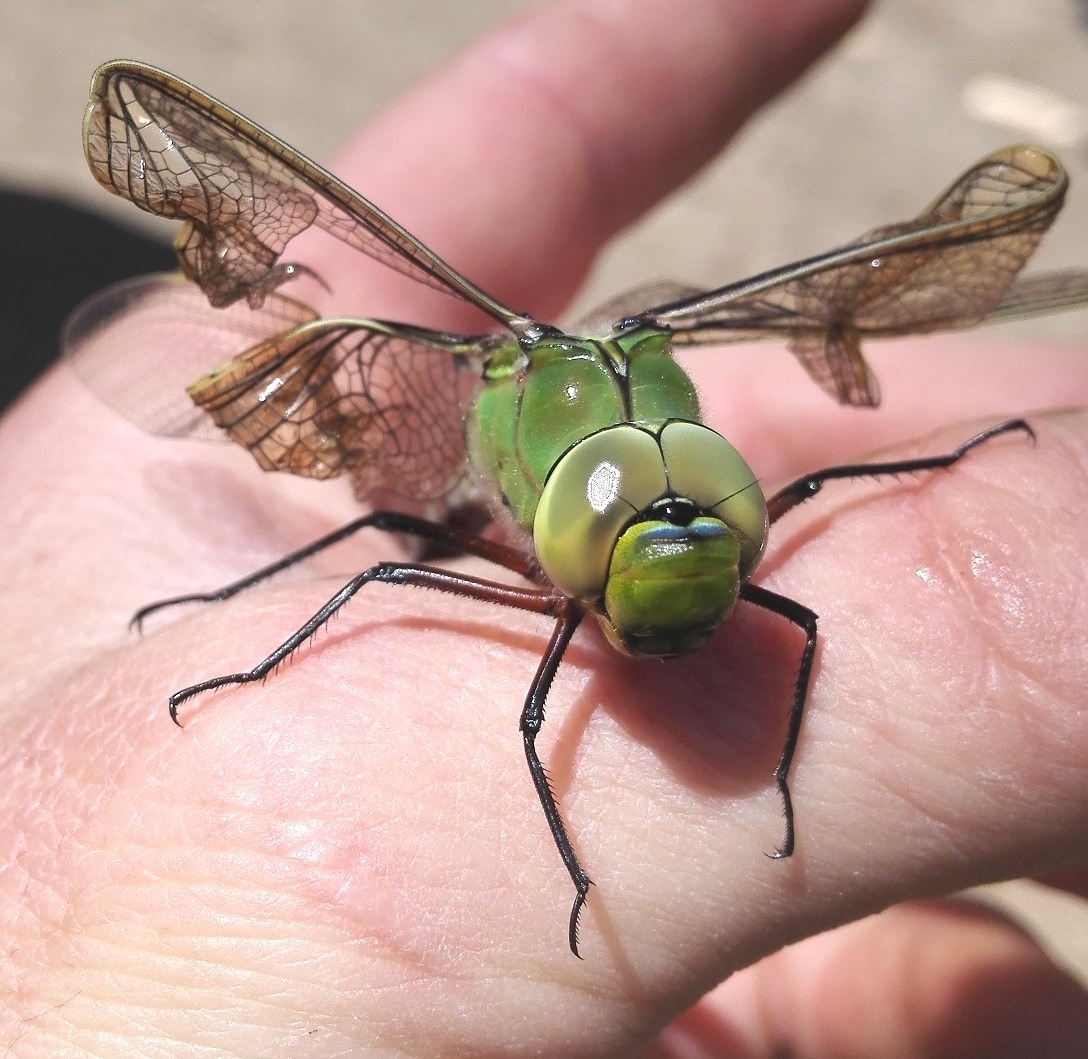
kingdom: Animalia
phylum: Arthropoda
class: Insecta
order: Odonata
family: Aeshnidae
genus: Anax
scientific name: Anax imperator
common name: Emperor dragonfly
